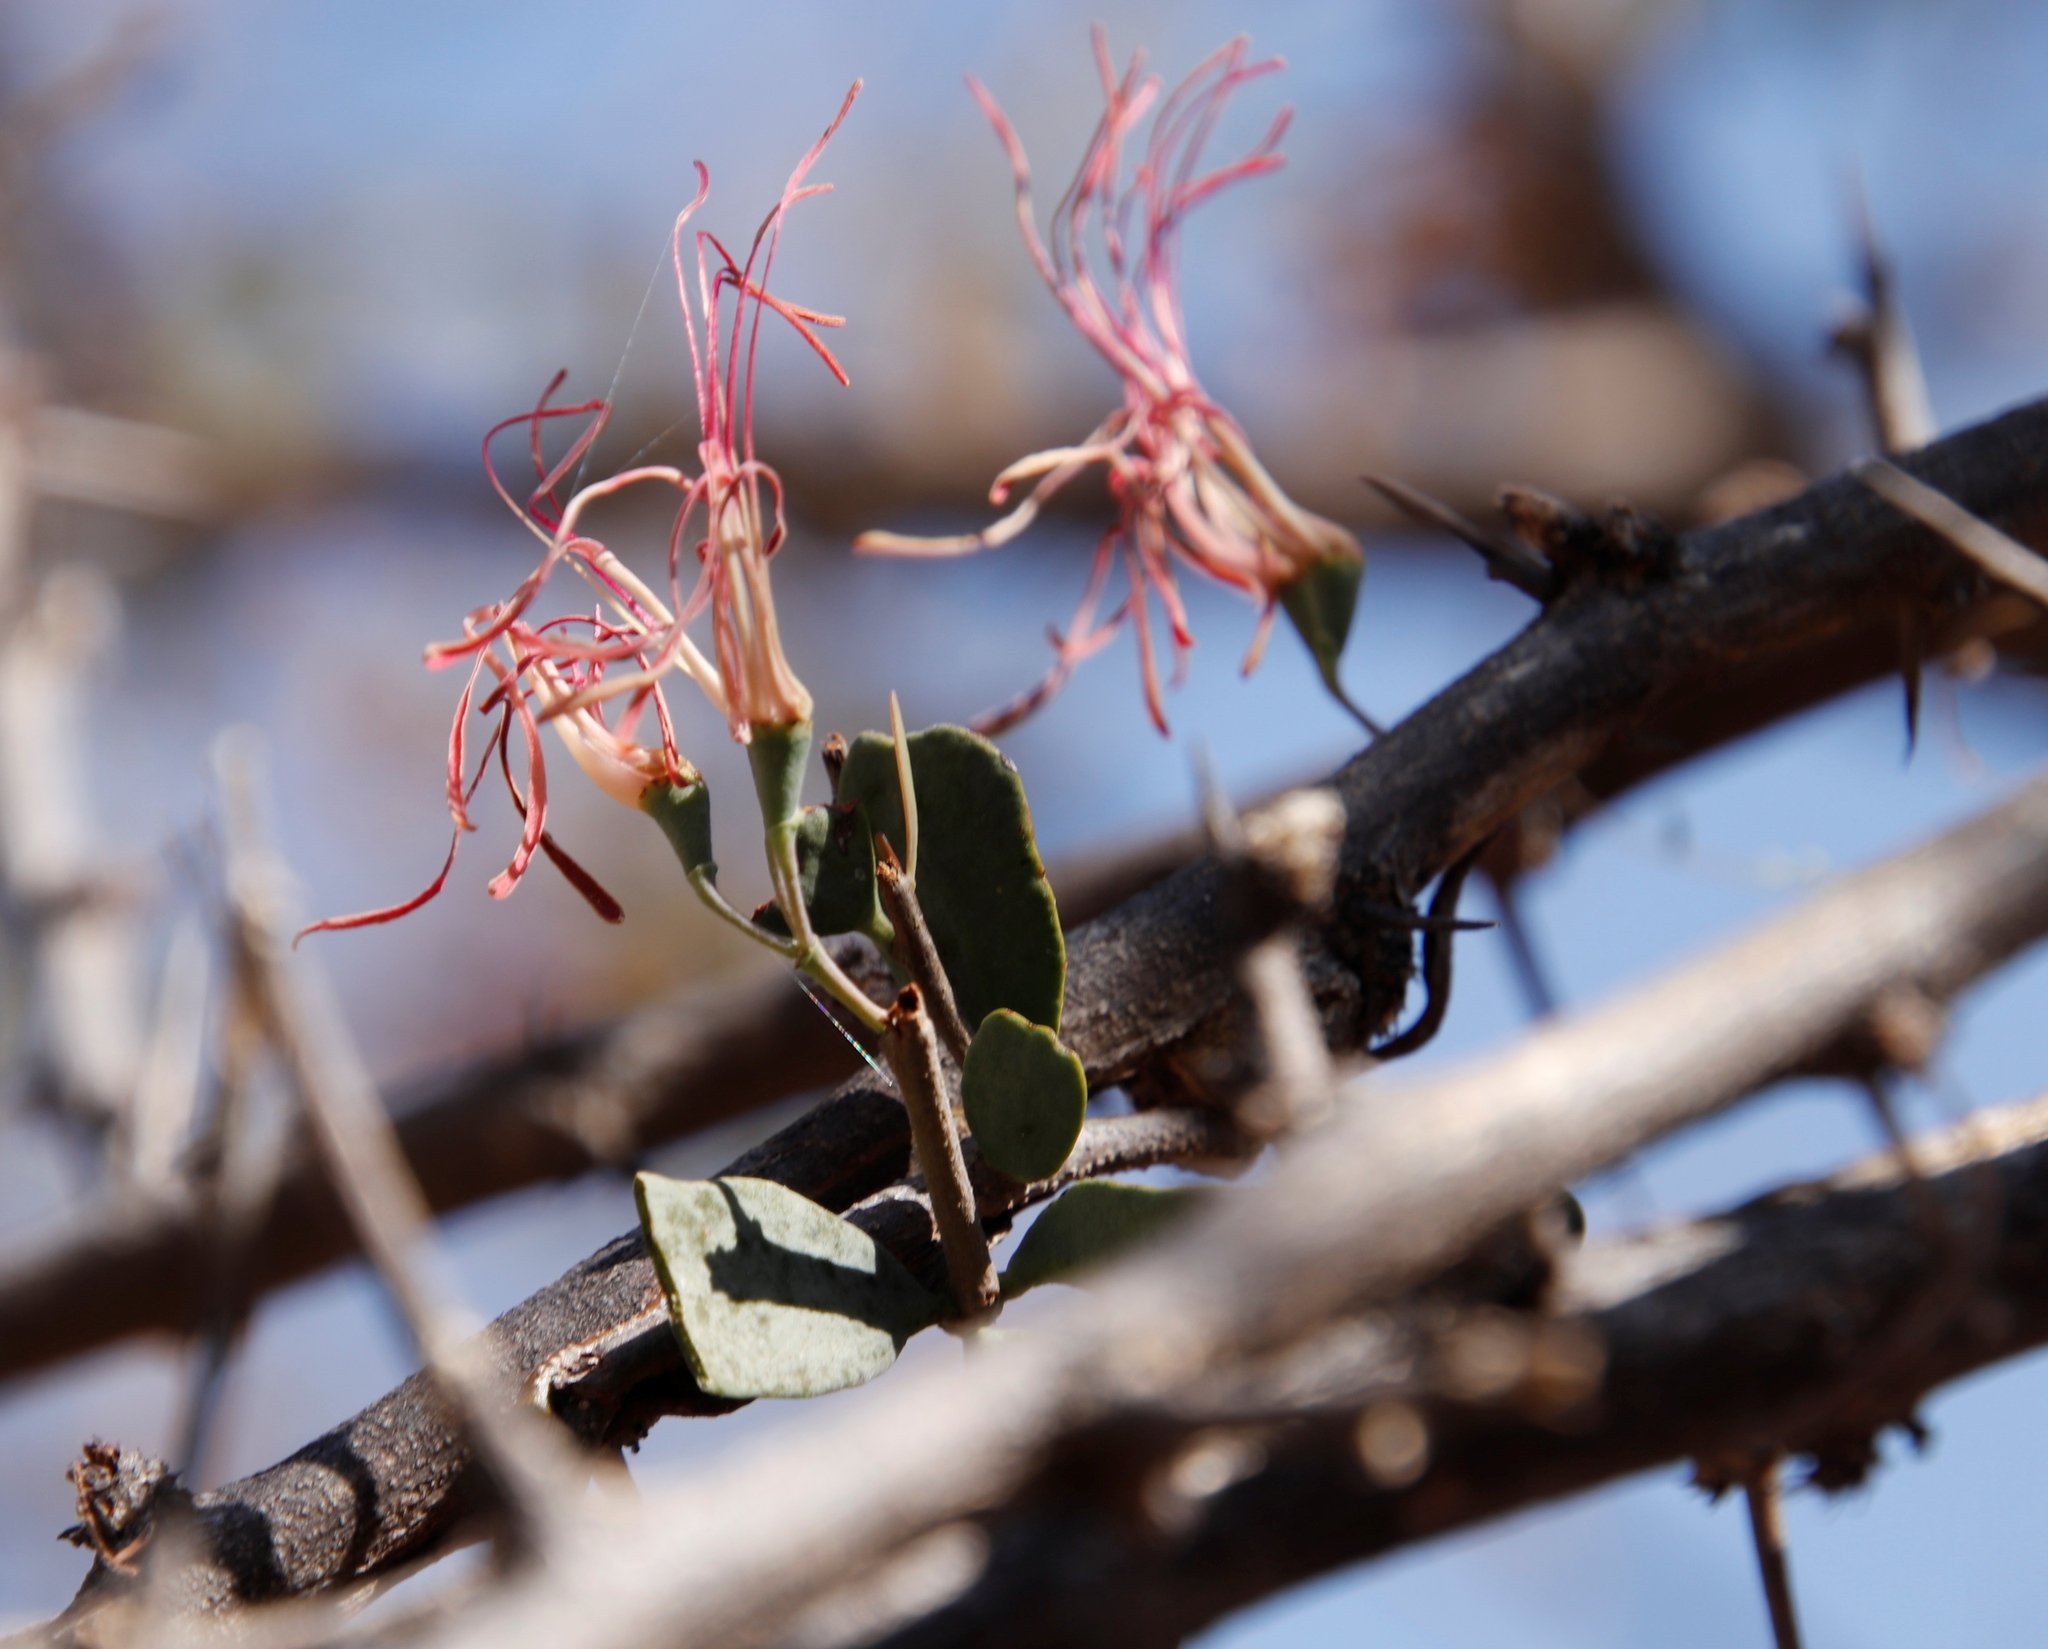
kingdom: Plantae
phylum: Tracheophyta
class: Magnoliopsida
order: Santalales
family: Loranthaceae
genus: Plicosepalus
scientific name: Plicosepalus kalachariensis
